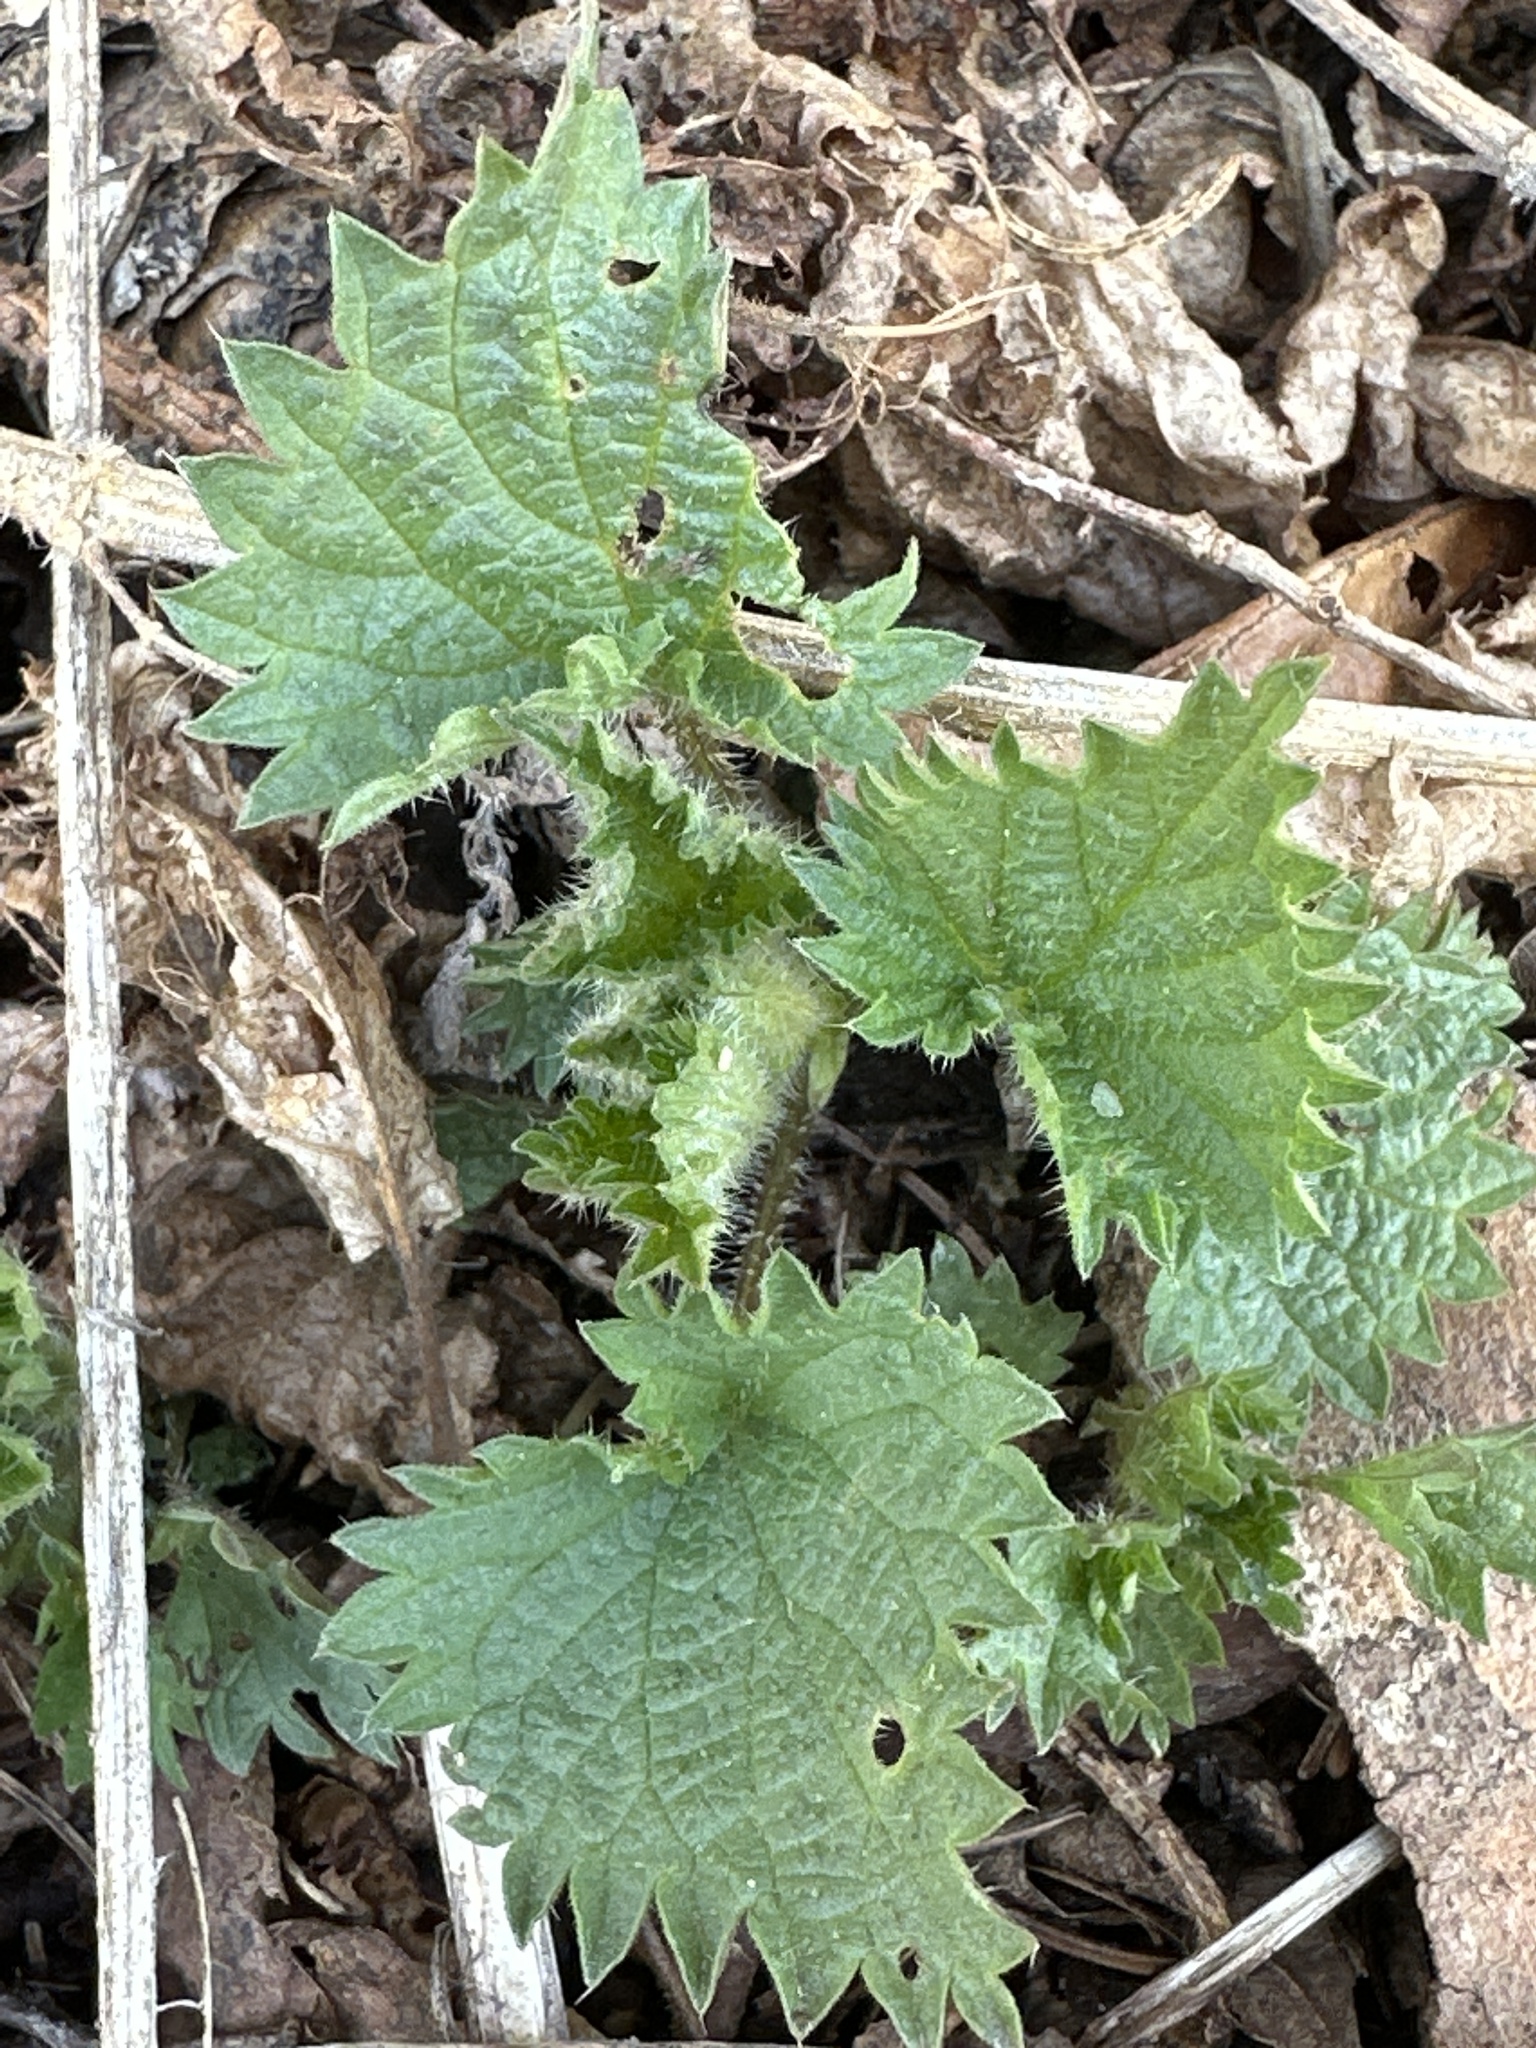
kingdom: Plantae
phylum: Tracheophyta
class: Magnoliopsida
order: Rosales
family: Urticaceae
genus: Urtica
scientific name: Urtica dioica
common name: Common nettle
